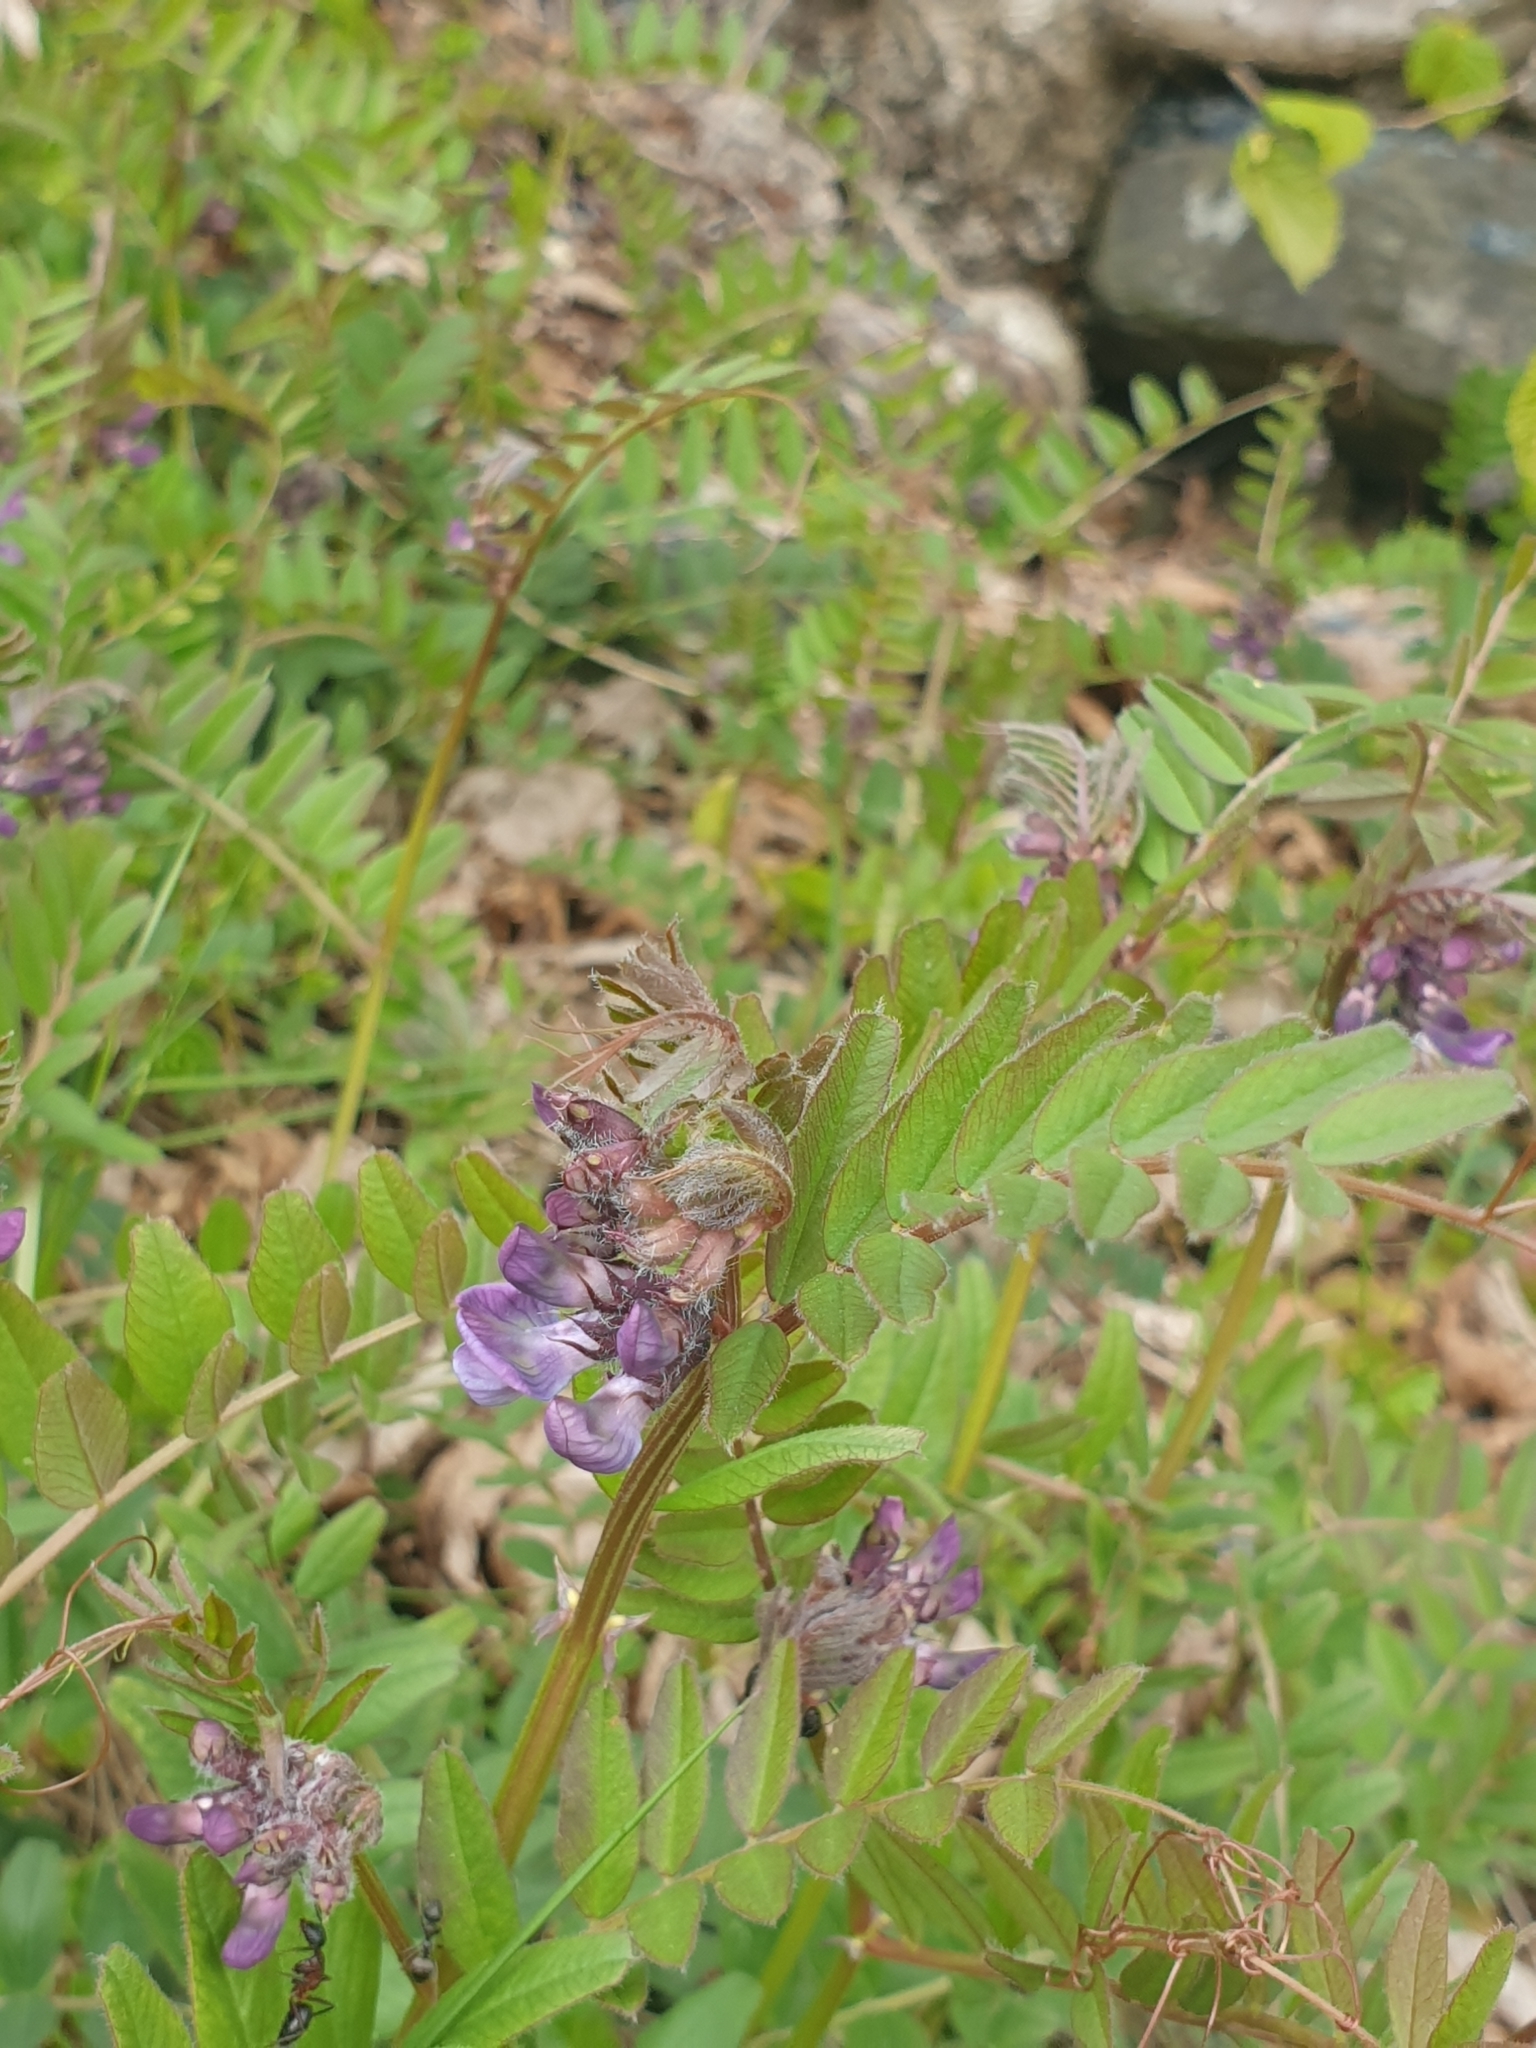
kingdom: Plantae
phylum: Tracheophyta
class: Magnoliopsida
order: Fabales
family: Fabaceae
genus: Vicia
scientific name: Vicia sepium
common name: Bush vetch
